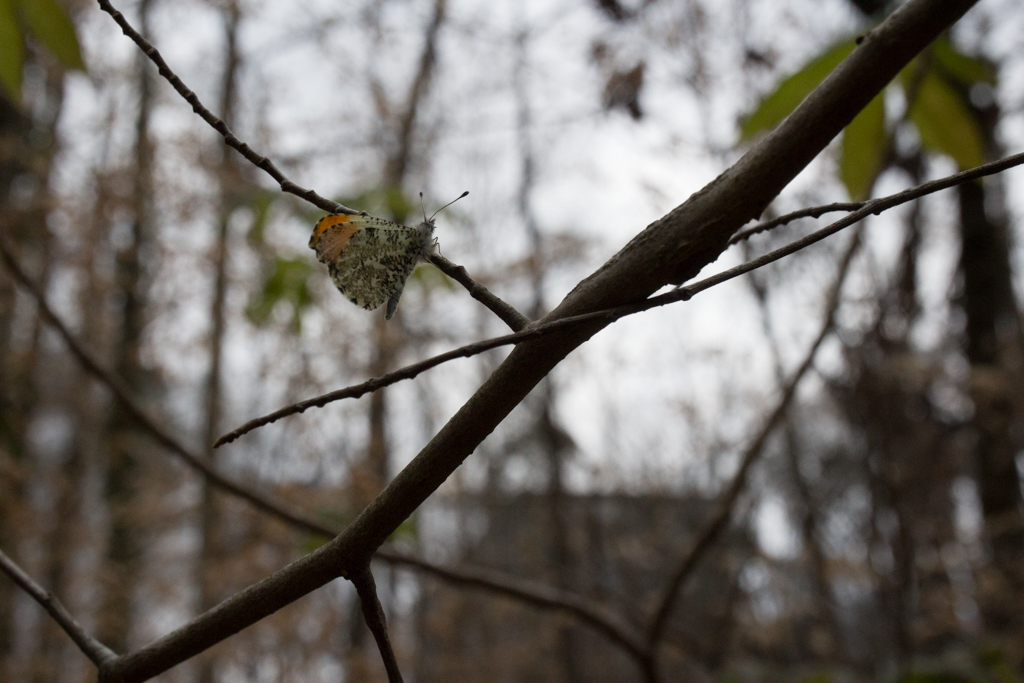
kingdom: Animalia
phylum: Arthropoda
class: Insecta
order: Lepidoptera
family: Pieridae
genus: Anthocharis
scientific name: Anthocharis midea
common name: Falcate orangetip
